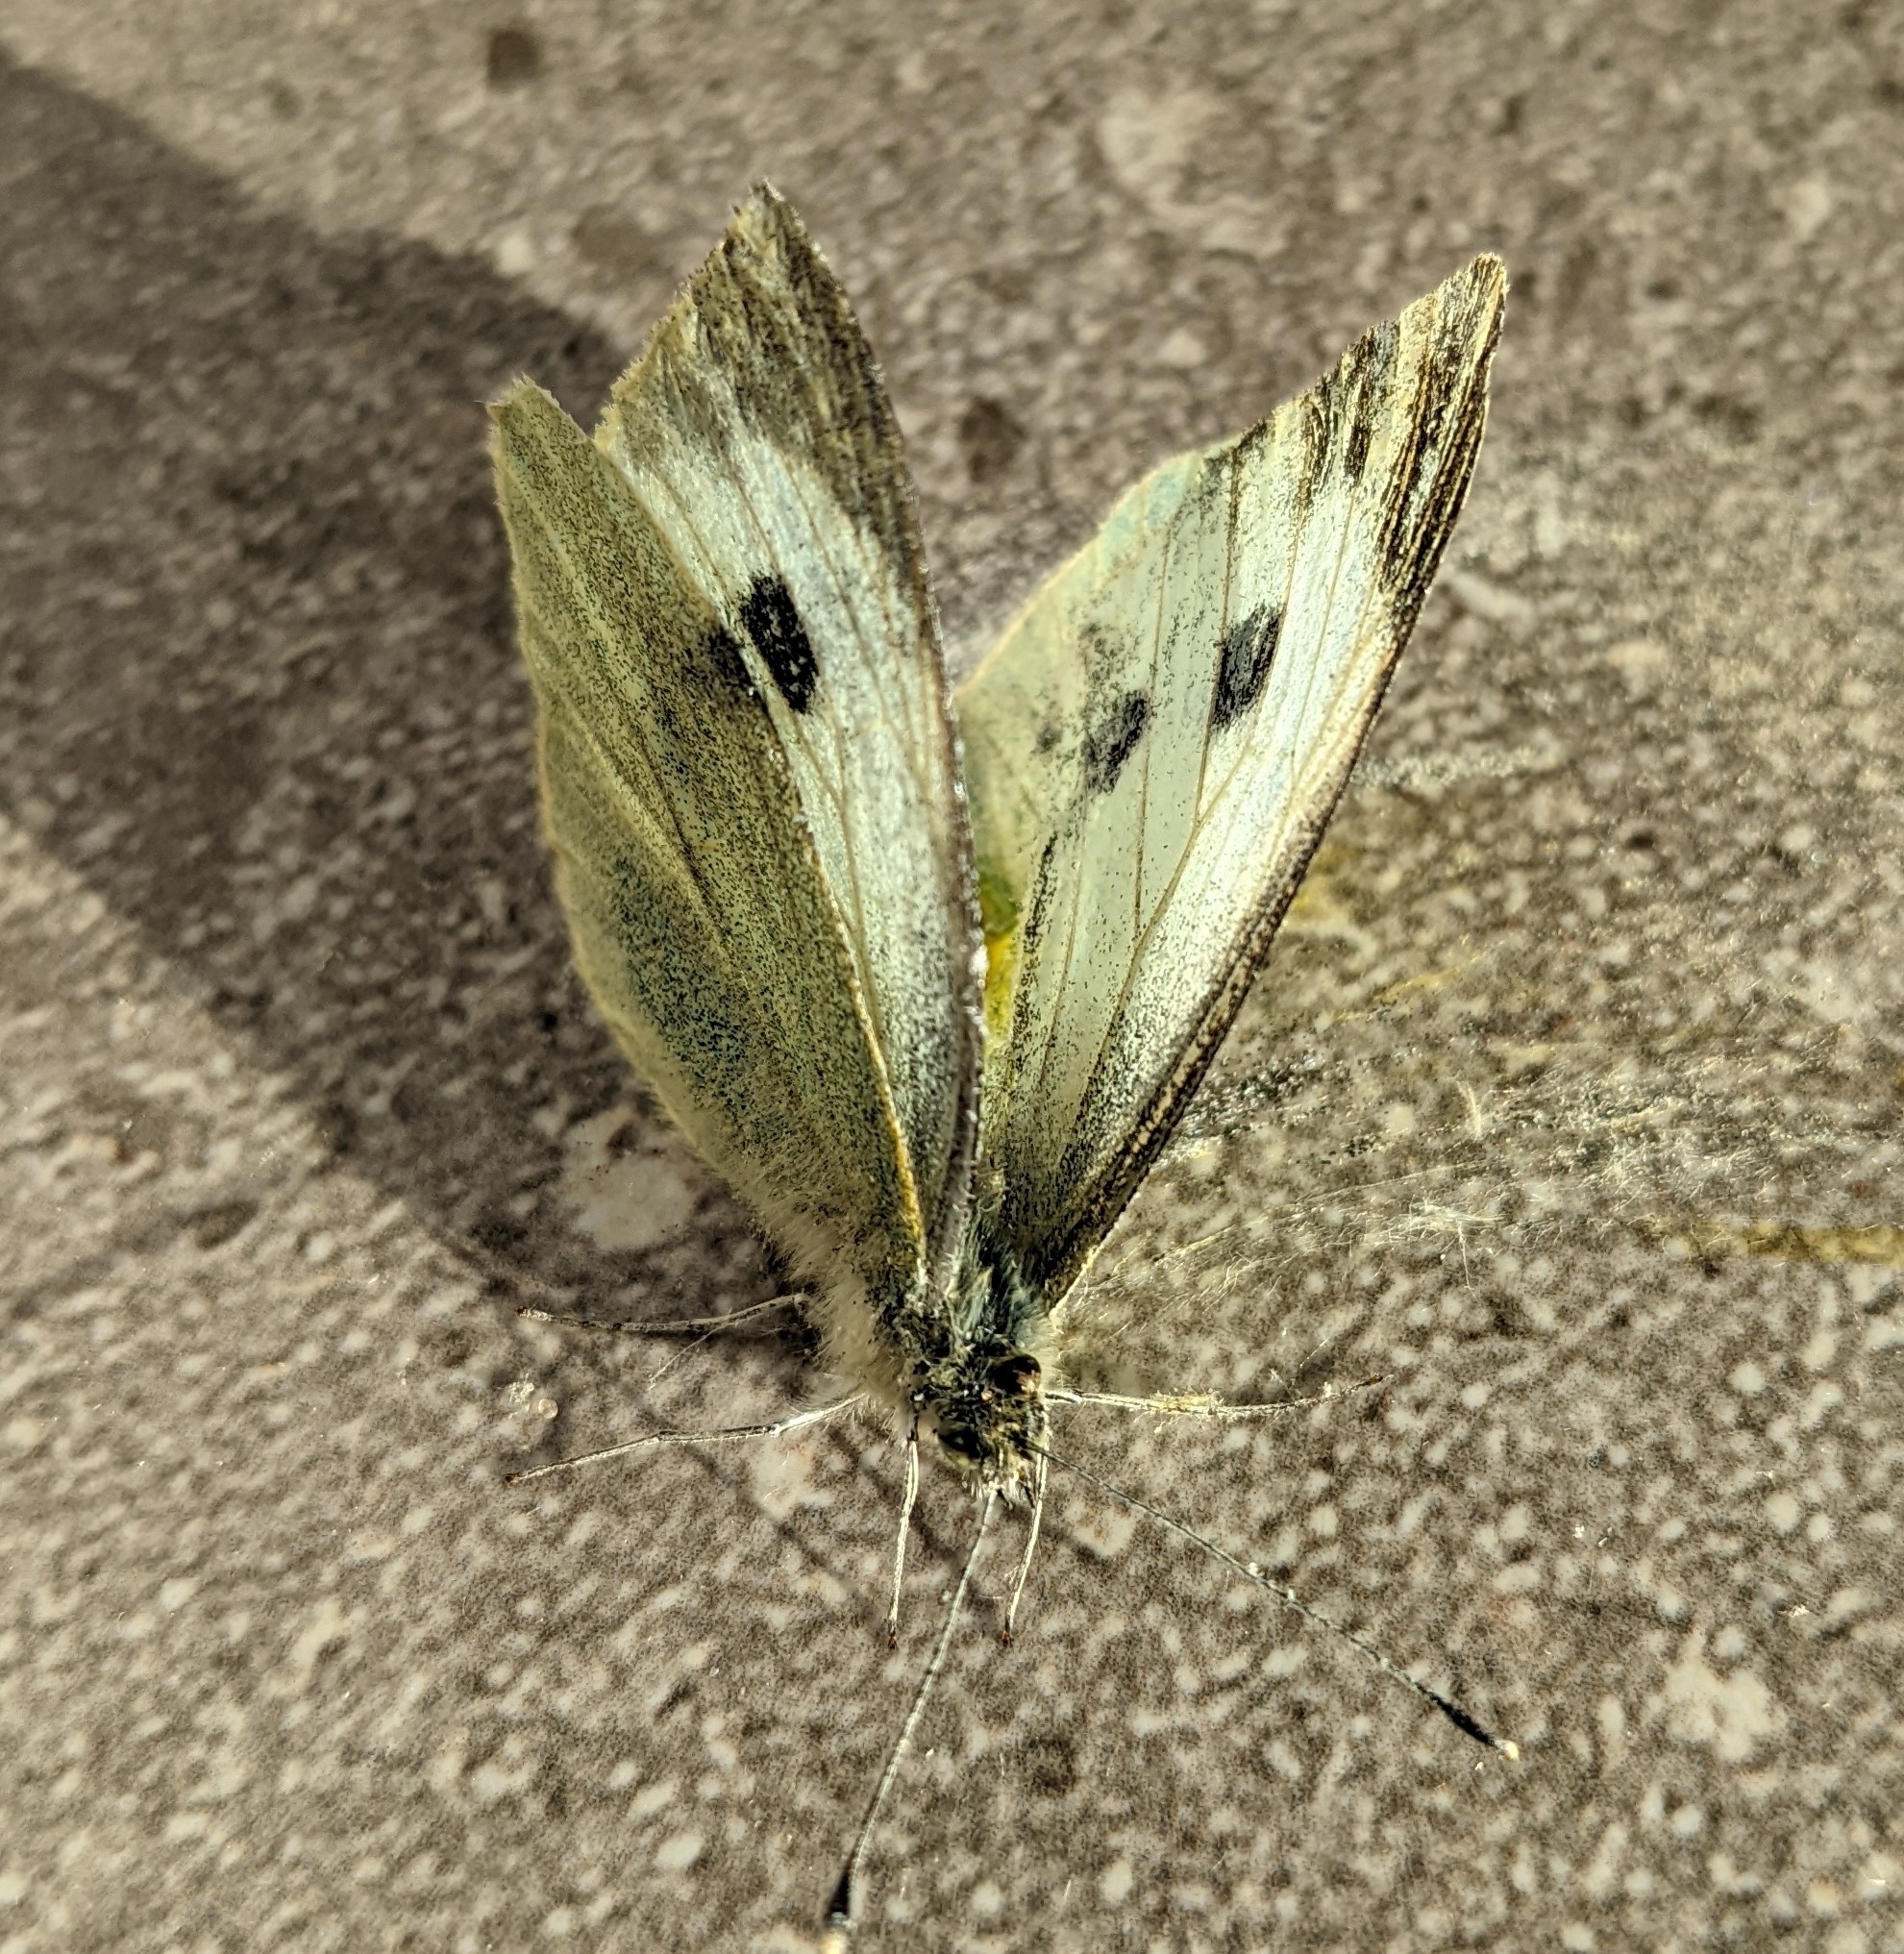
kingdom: Animalia
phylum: Arthropoda
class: Insecta
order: Lepidoptera
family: Pieridae
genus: Pieris
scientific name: Pieris brassicae
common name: Large white
